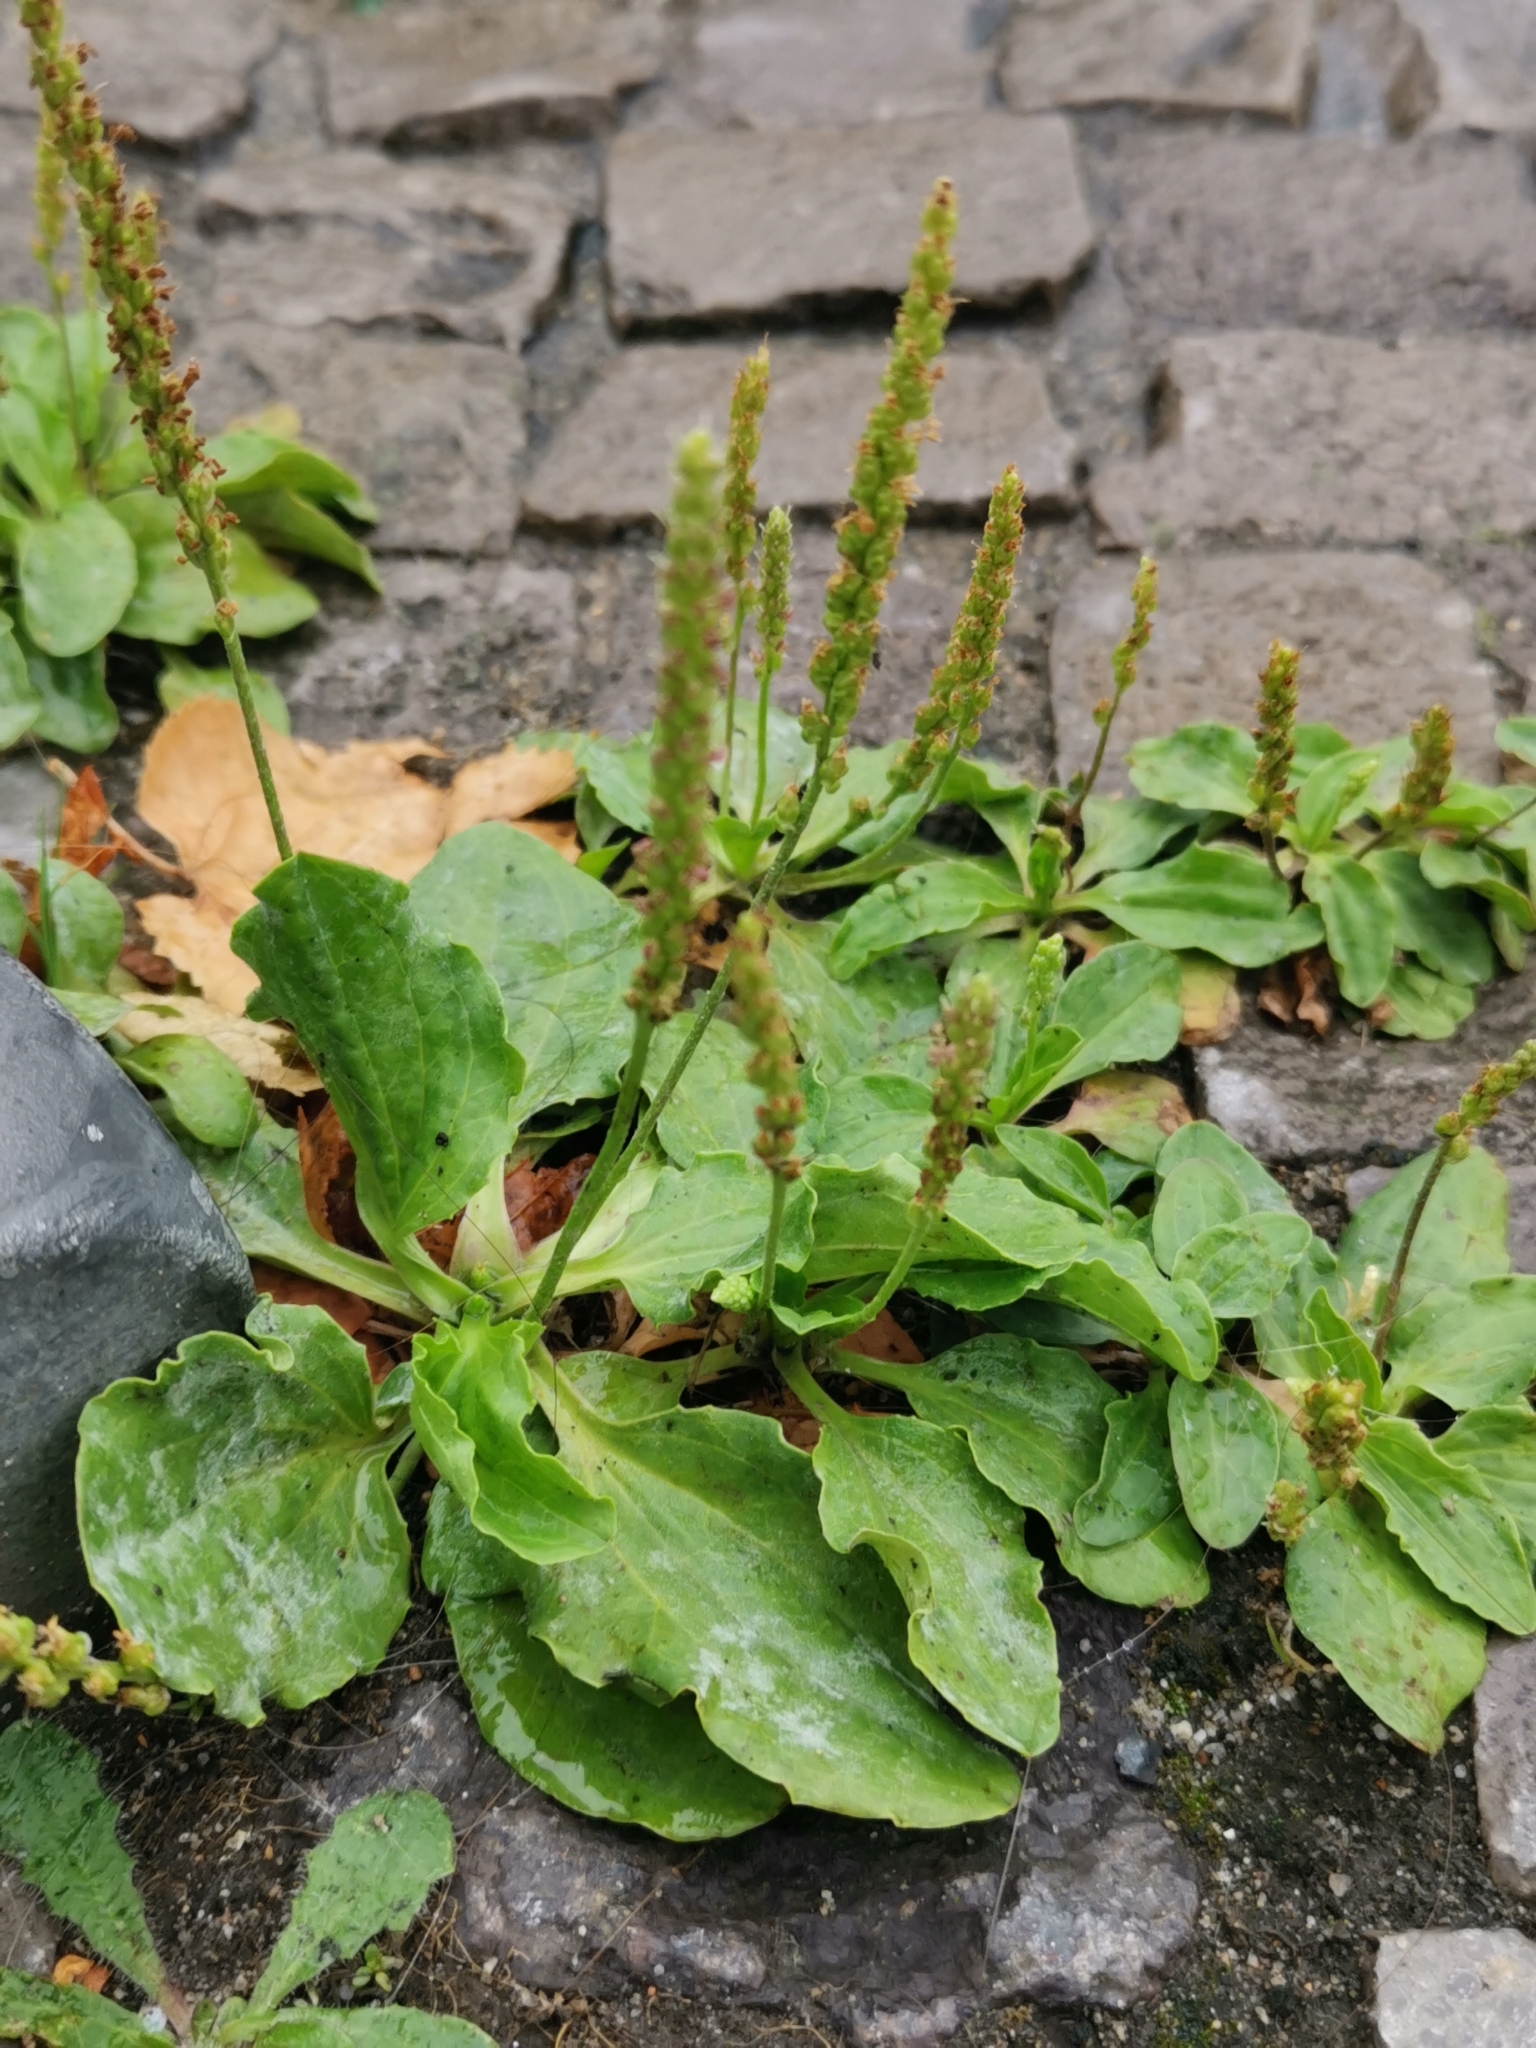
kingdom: Plantae
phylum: Tracheophyta
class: Magnoliopsida
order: Lamiales
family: Plantaginaceae
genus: Plantago
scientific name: Plantago major
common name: Common plantain
